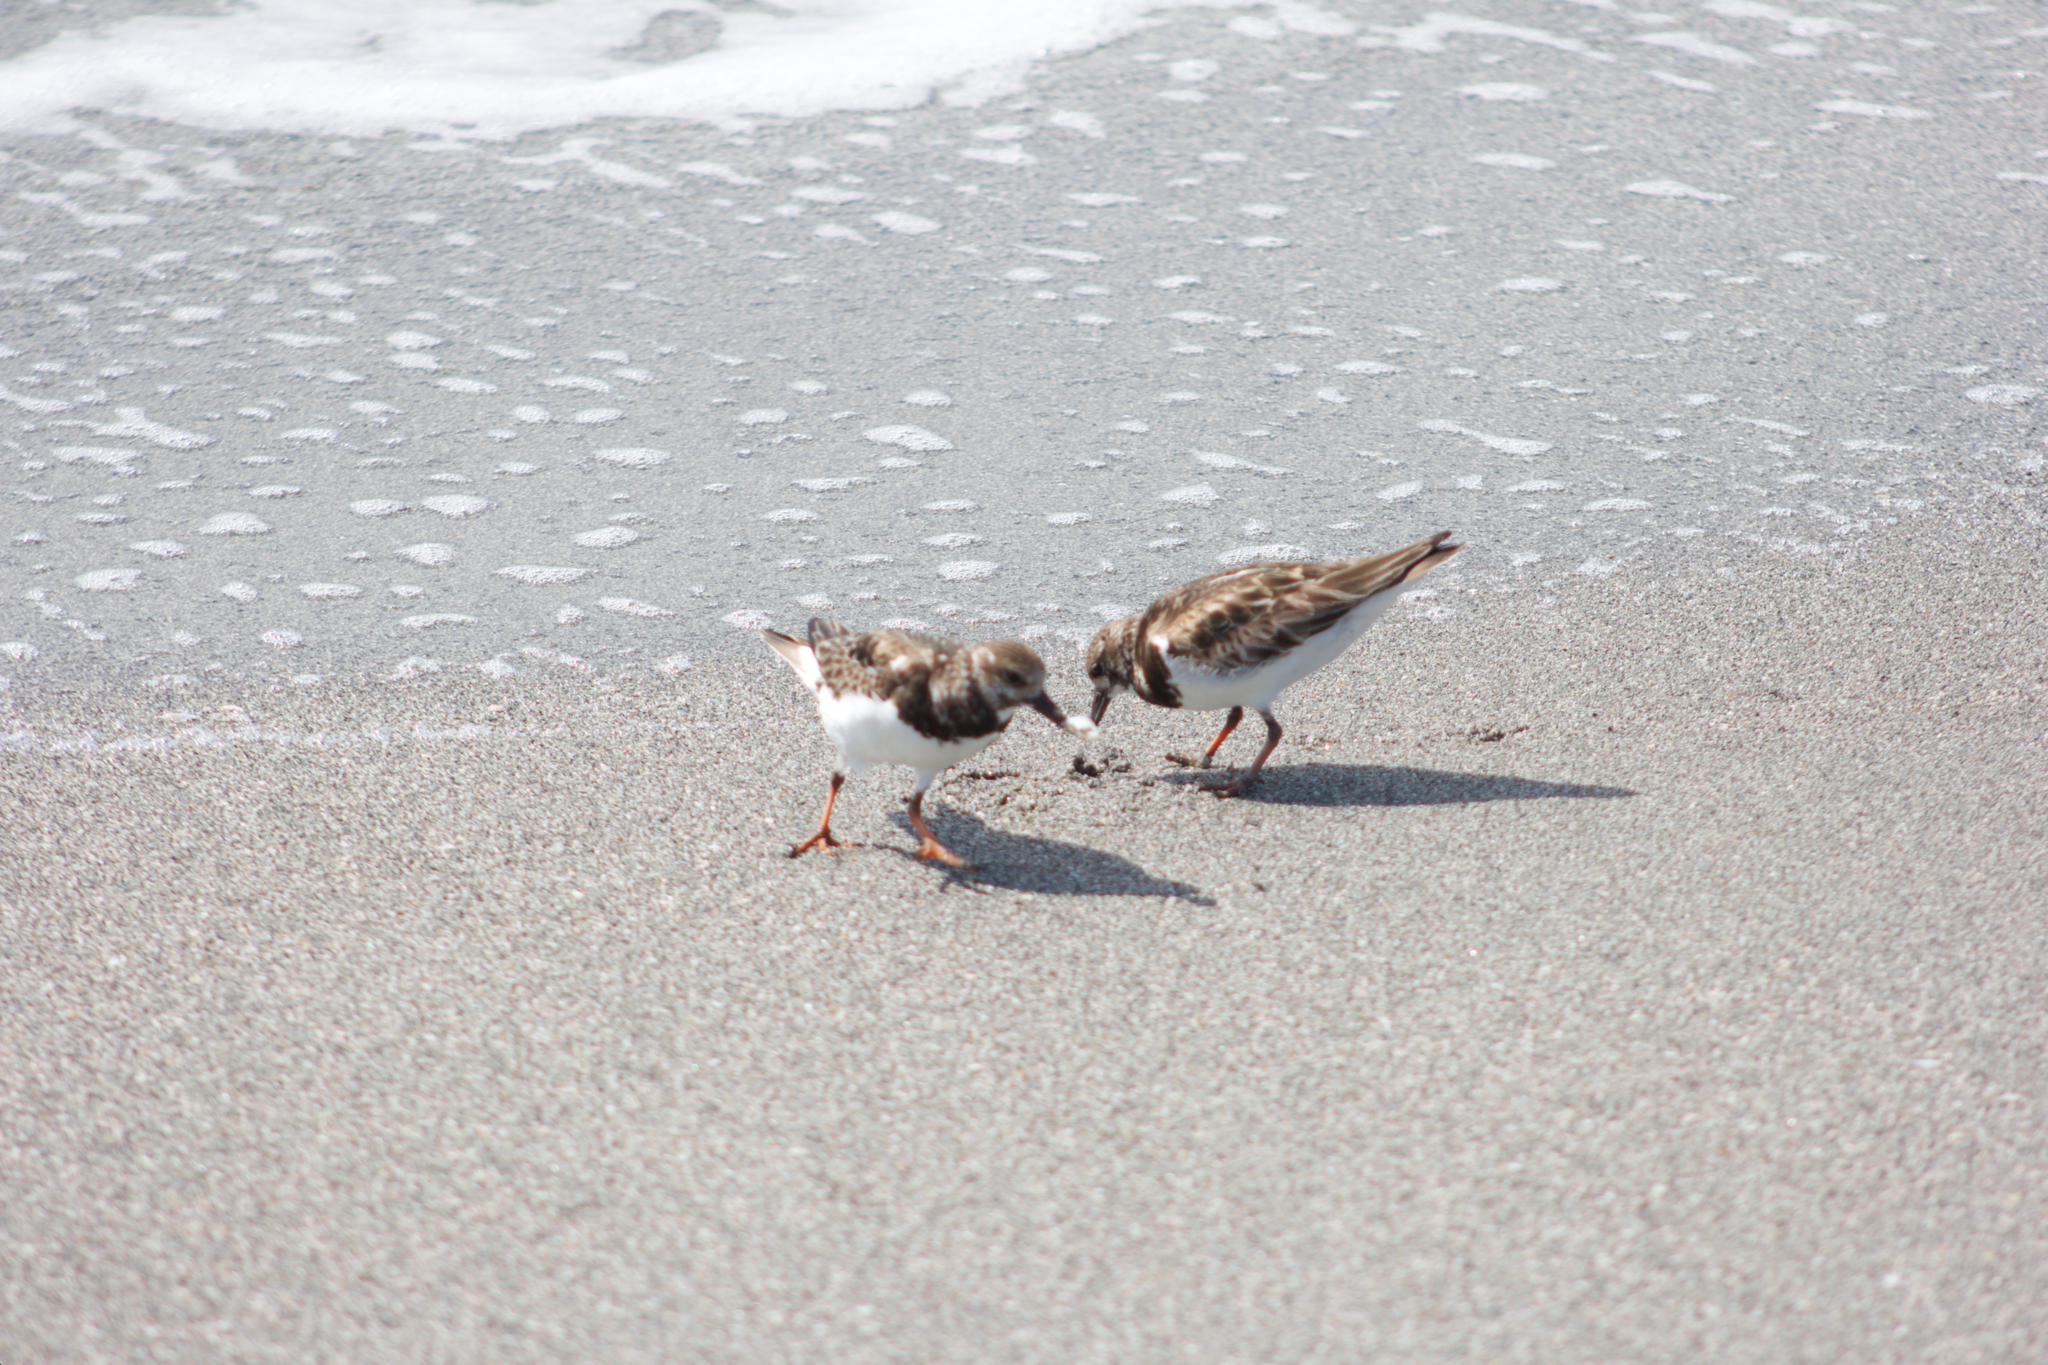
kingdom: Animalia
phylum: Chordata
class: Aves
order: Charadriiformes
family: Scolopacidae
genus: Arenaria
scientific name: Arenaria interpres
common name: Ruddy turnstone
